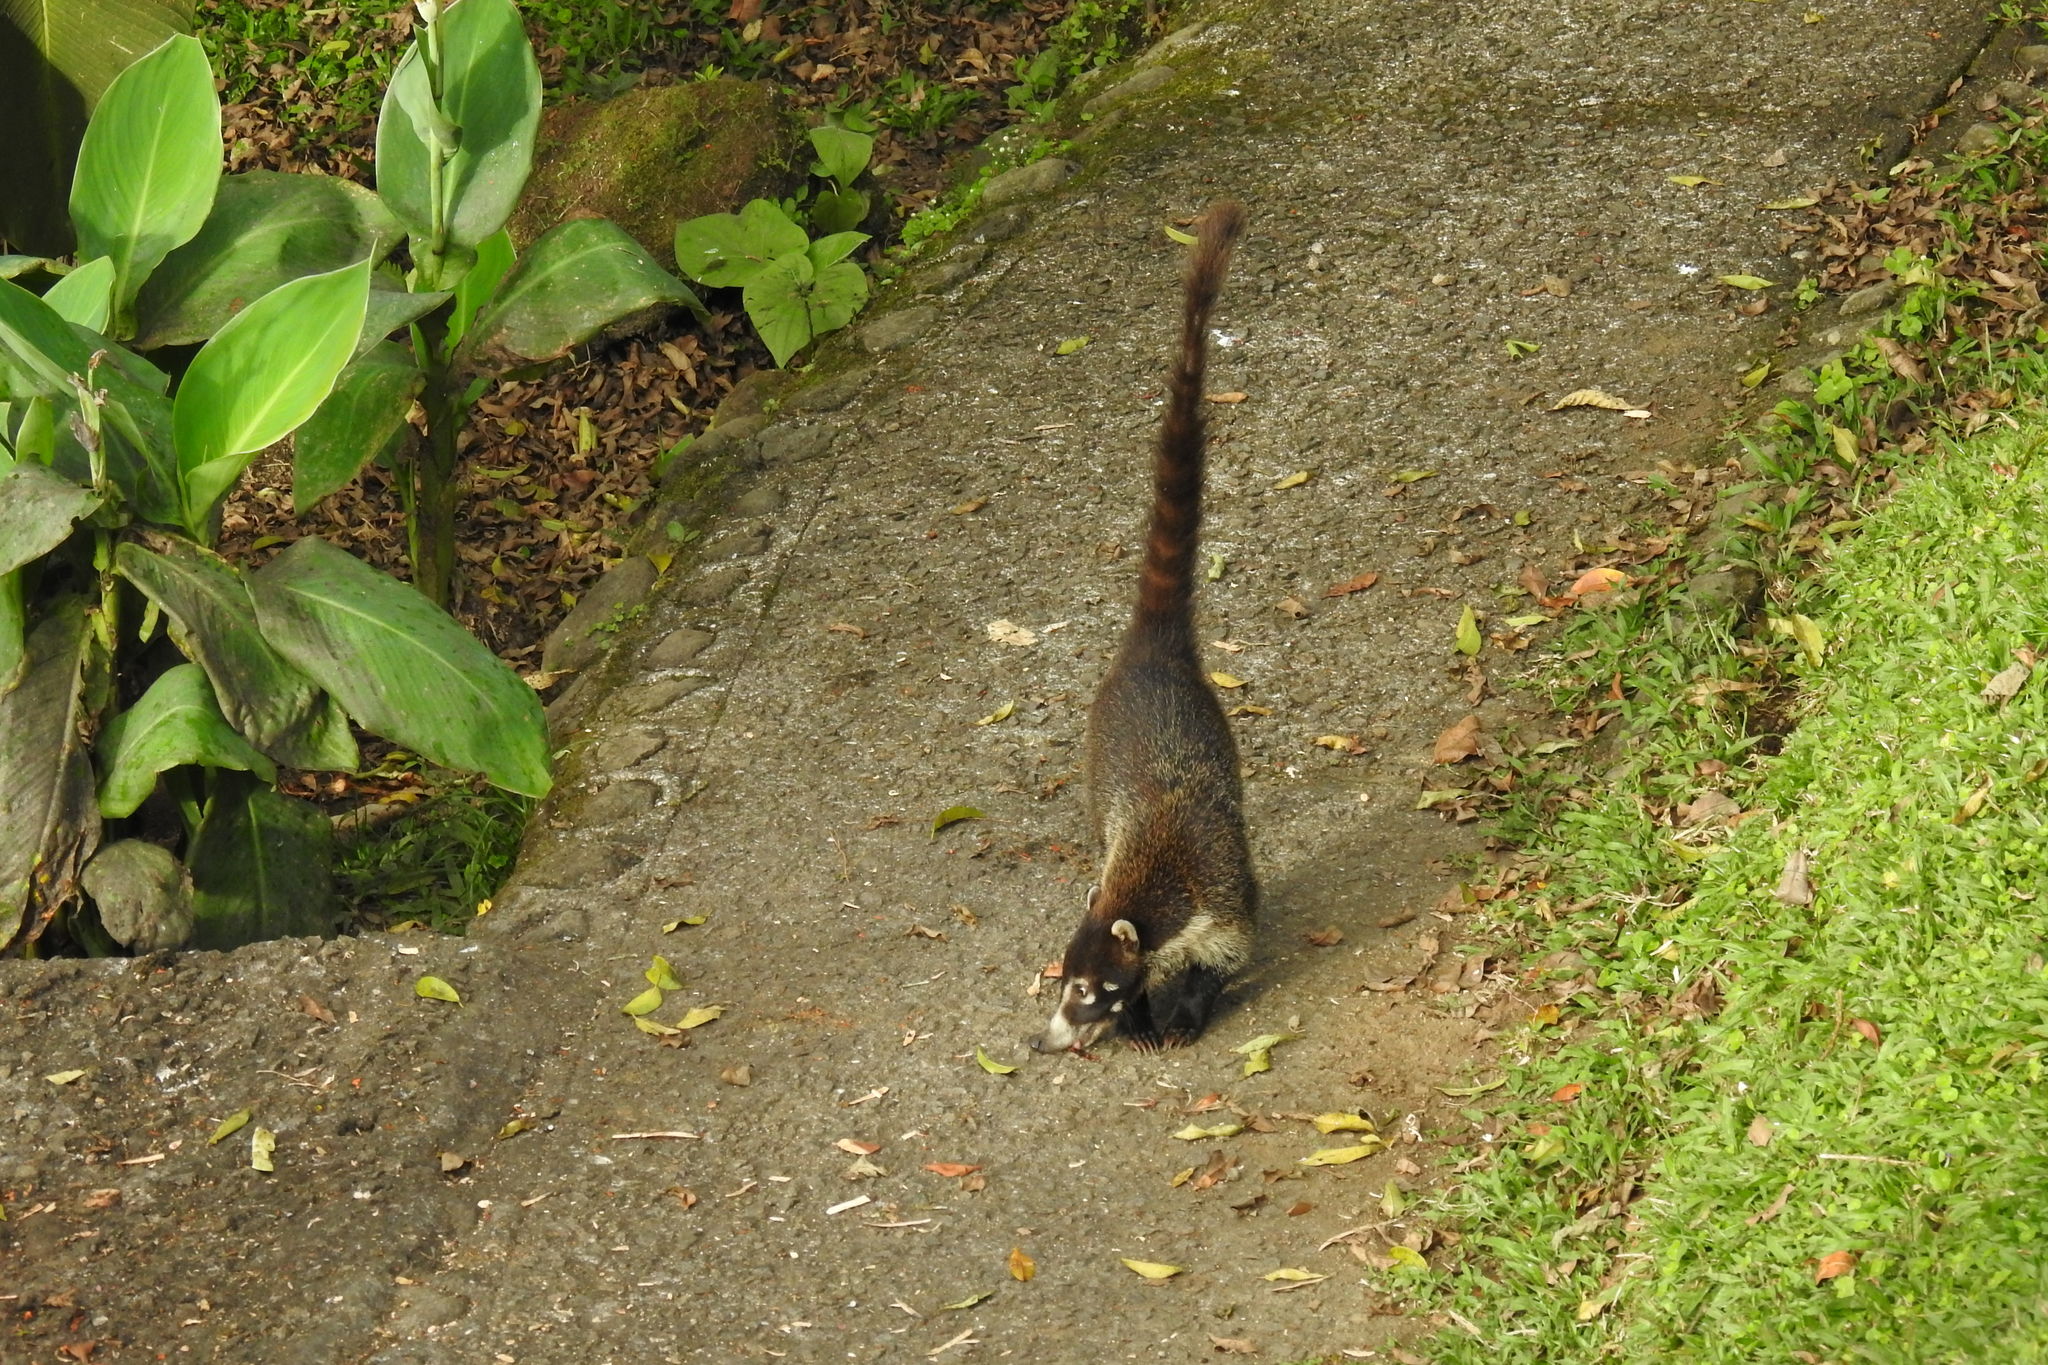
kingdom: Animalia
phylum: Chordata
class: Mammalia
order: Carnivora
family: Procyonidae
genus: Nasua
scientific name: Nasua narica
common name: White-nosed coati
